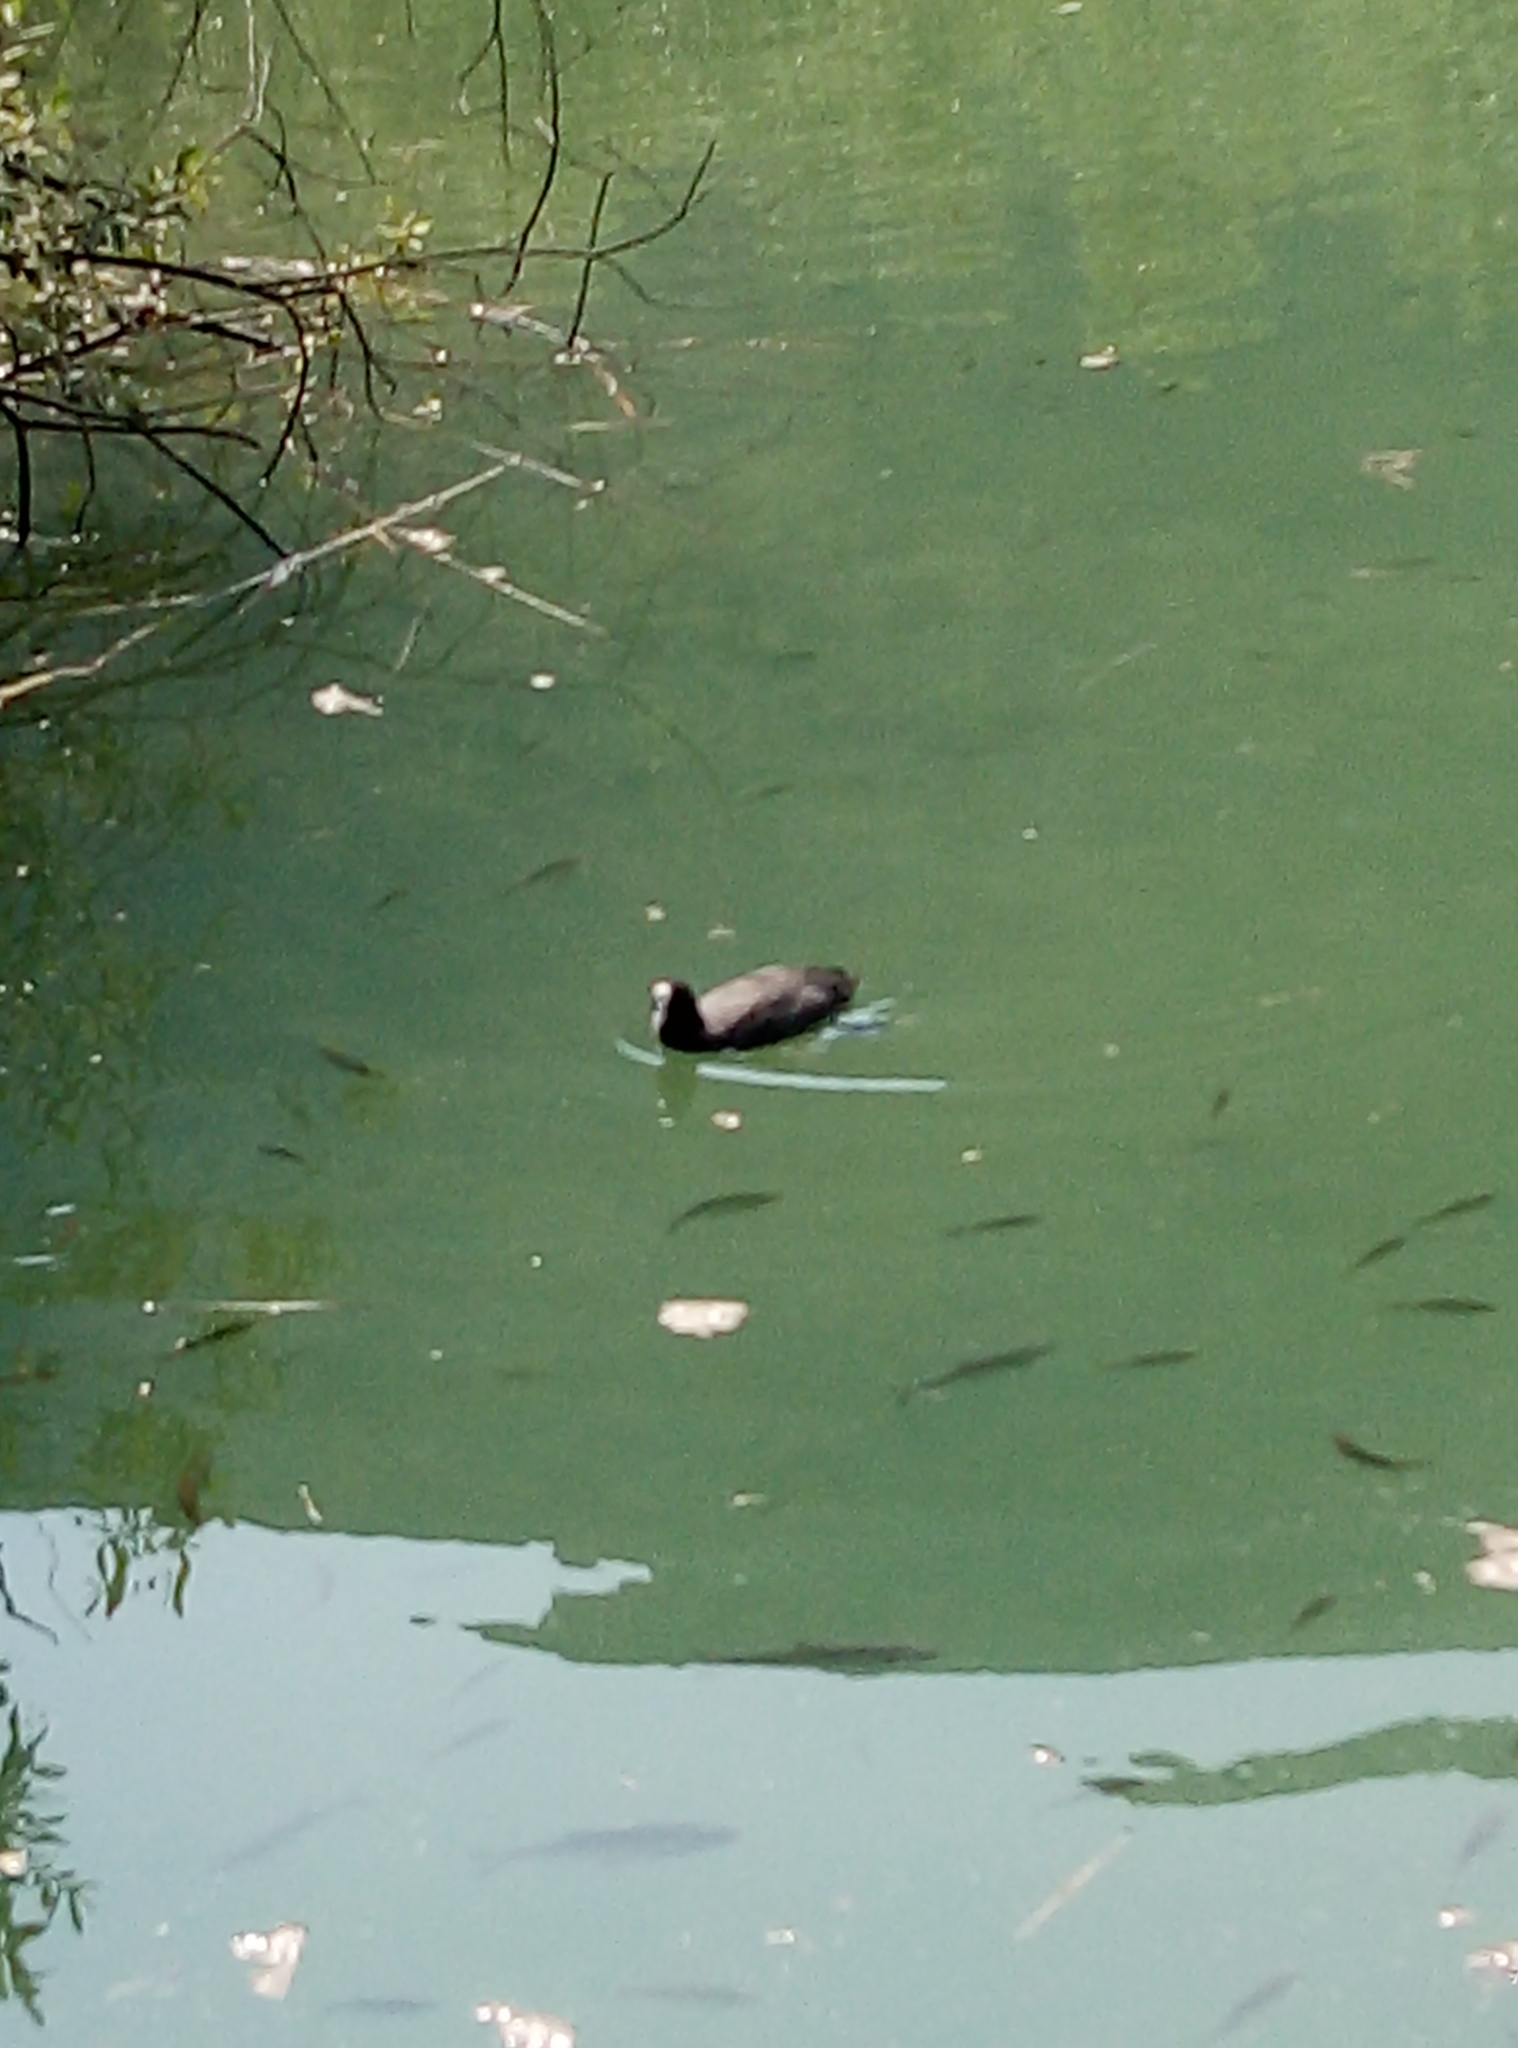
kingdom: Animalia
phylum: Chordata
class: Aves
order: Gruiformes
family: Rallidae
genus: Fulica
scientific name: Fulica atra
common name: Eurasian coot
